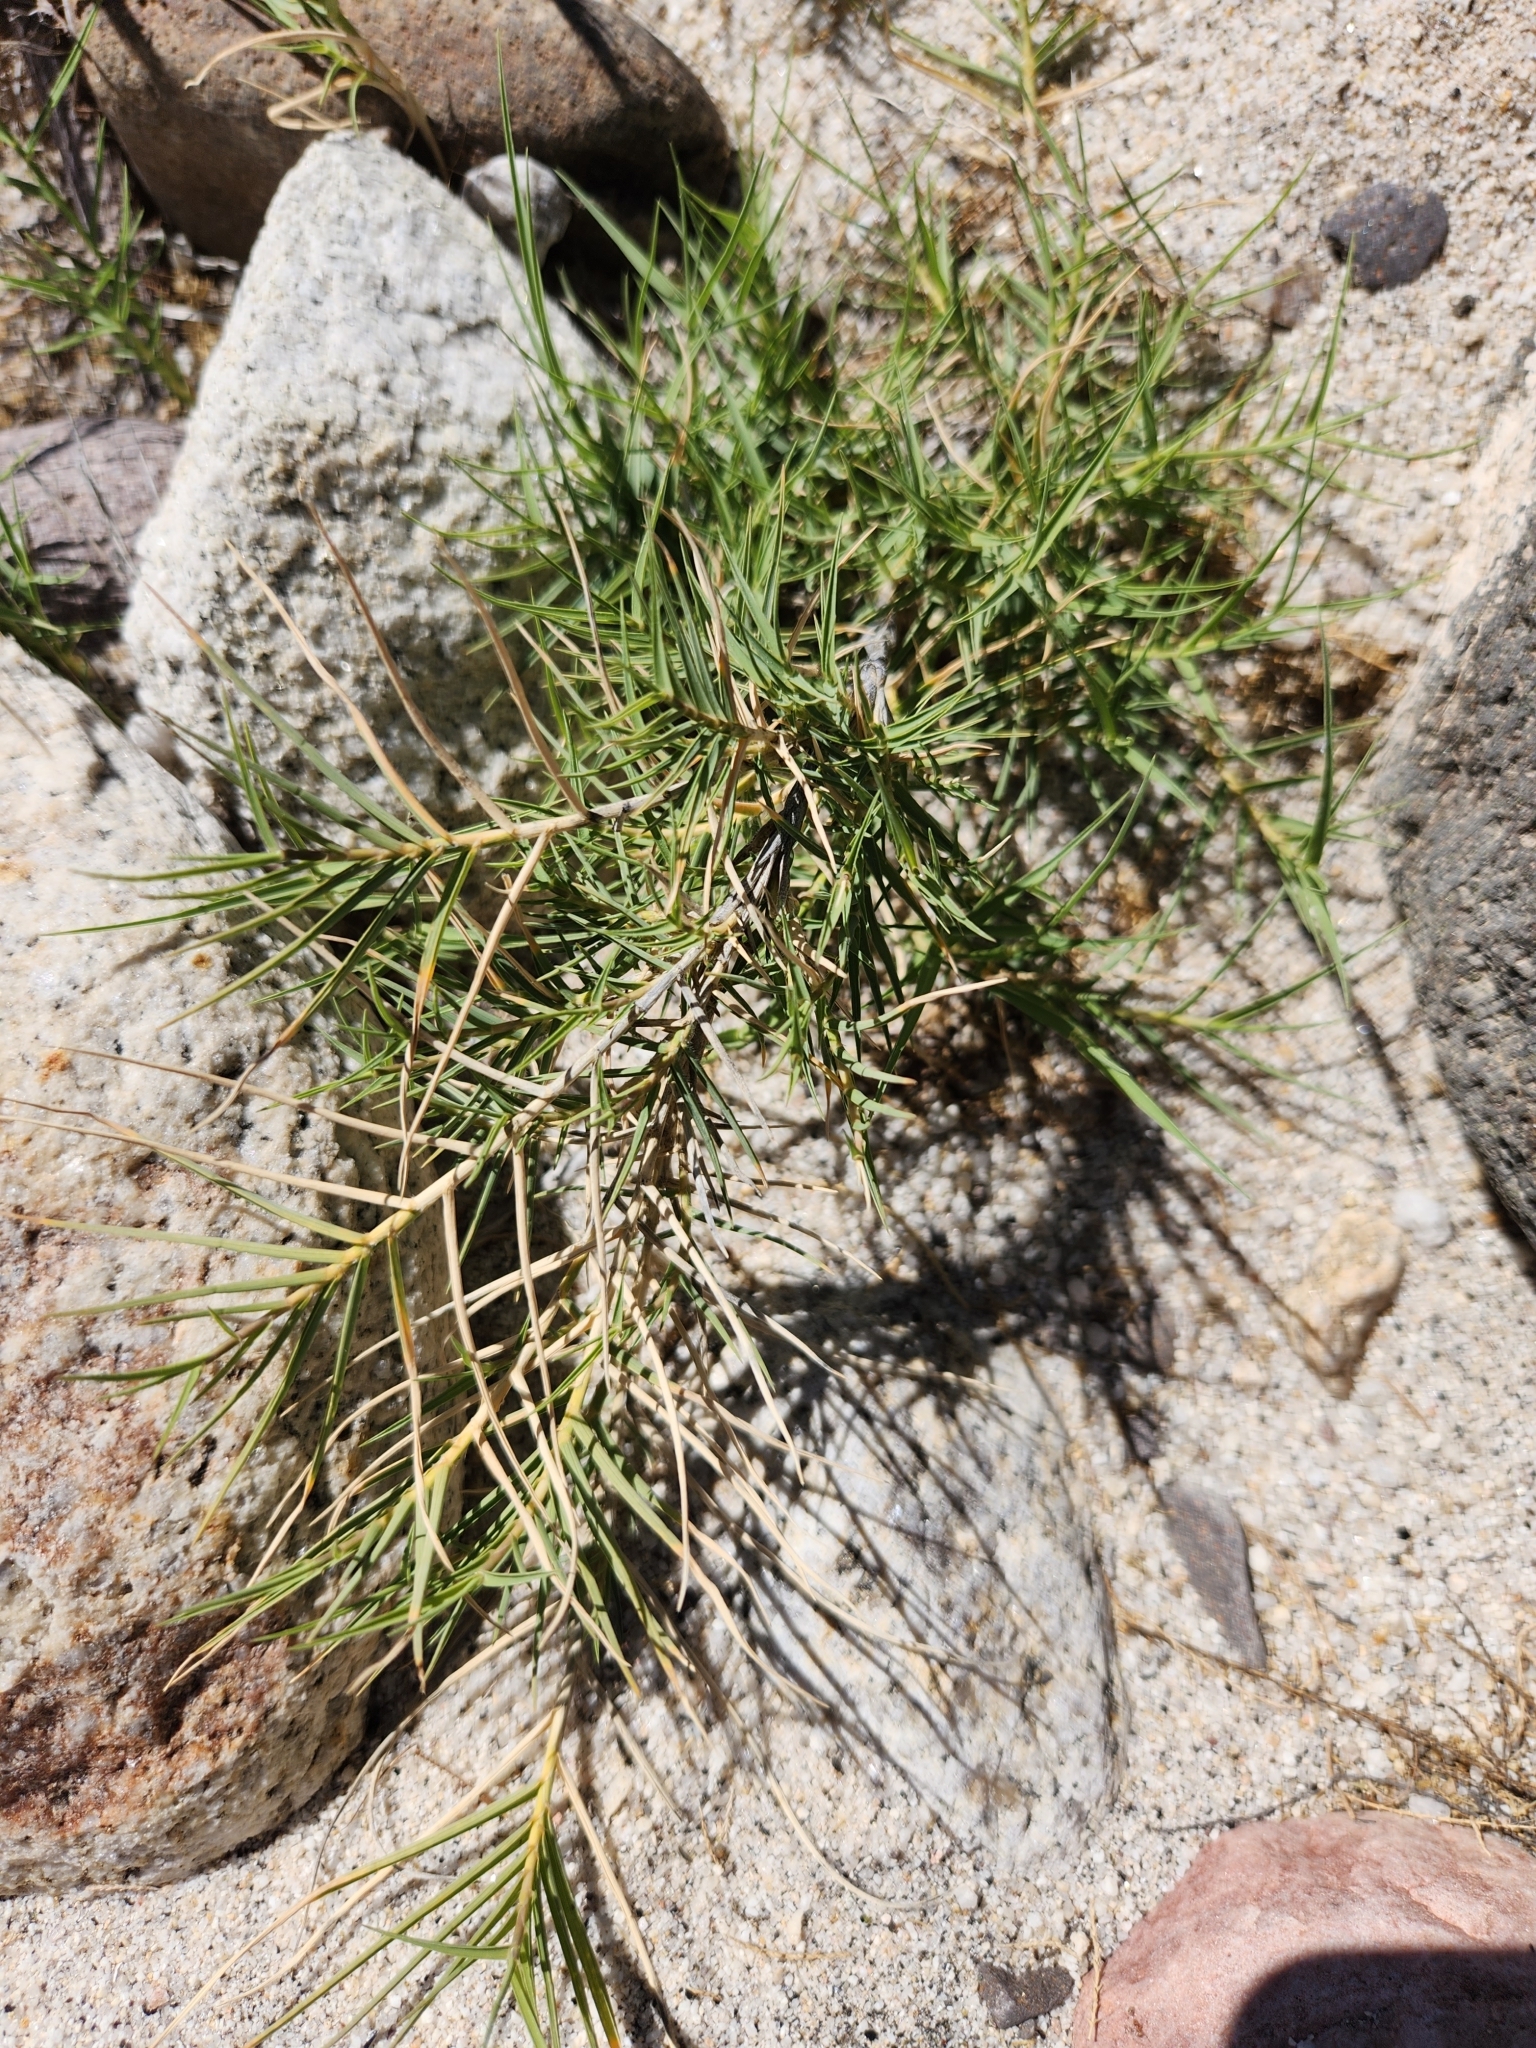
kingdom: Plantae
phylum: Tracheophyta
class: Liliopsida
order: Poales
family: Poaceae
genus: Distichlis
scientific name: Distichlis spicata
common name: Saltgrass
